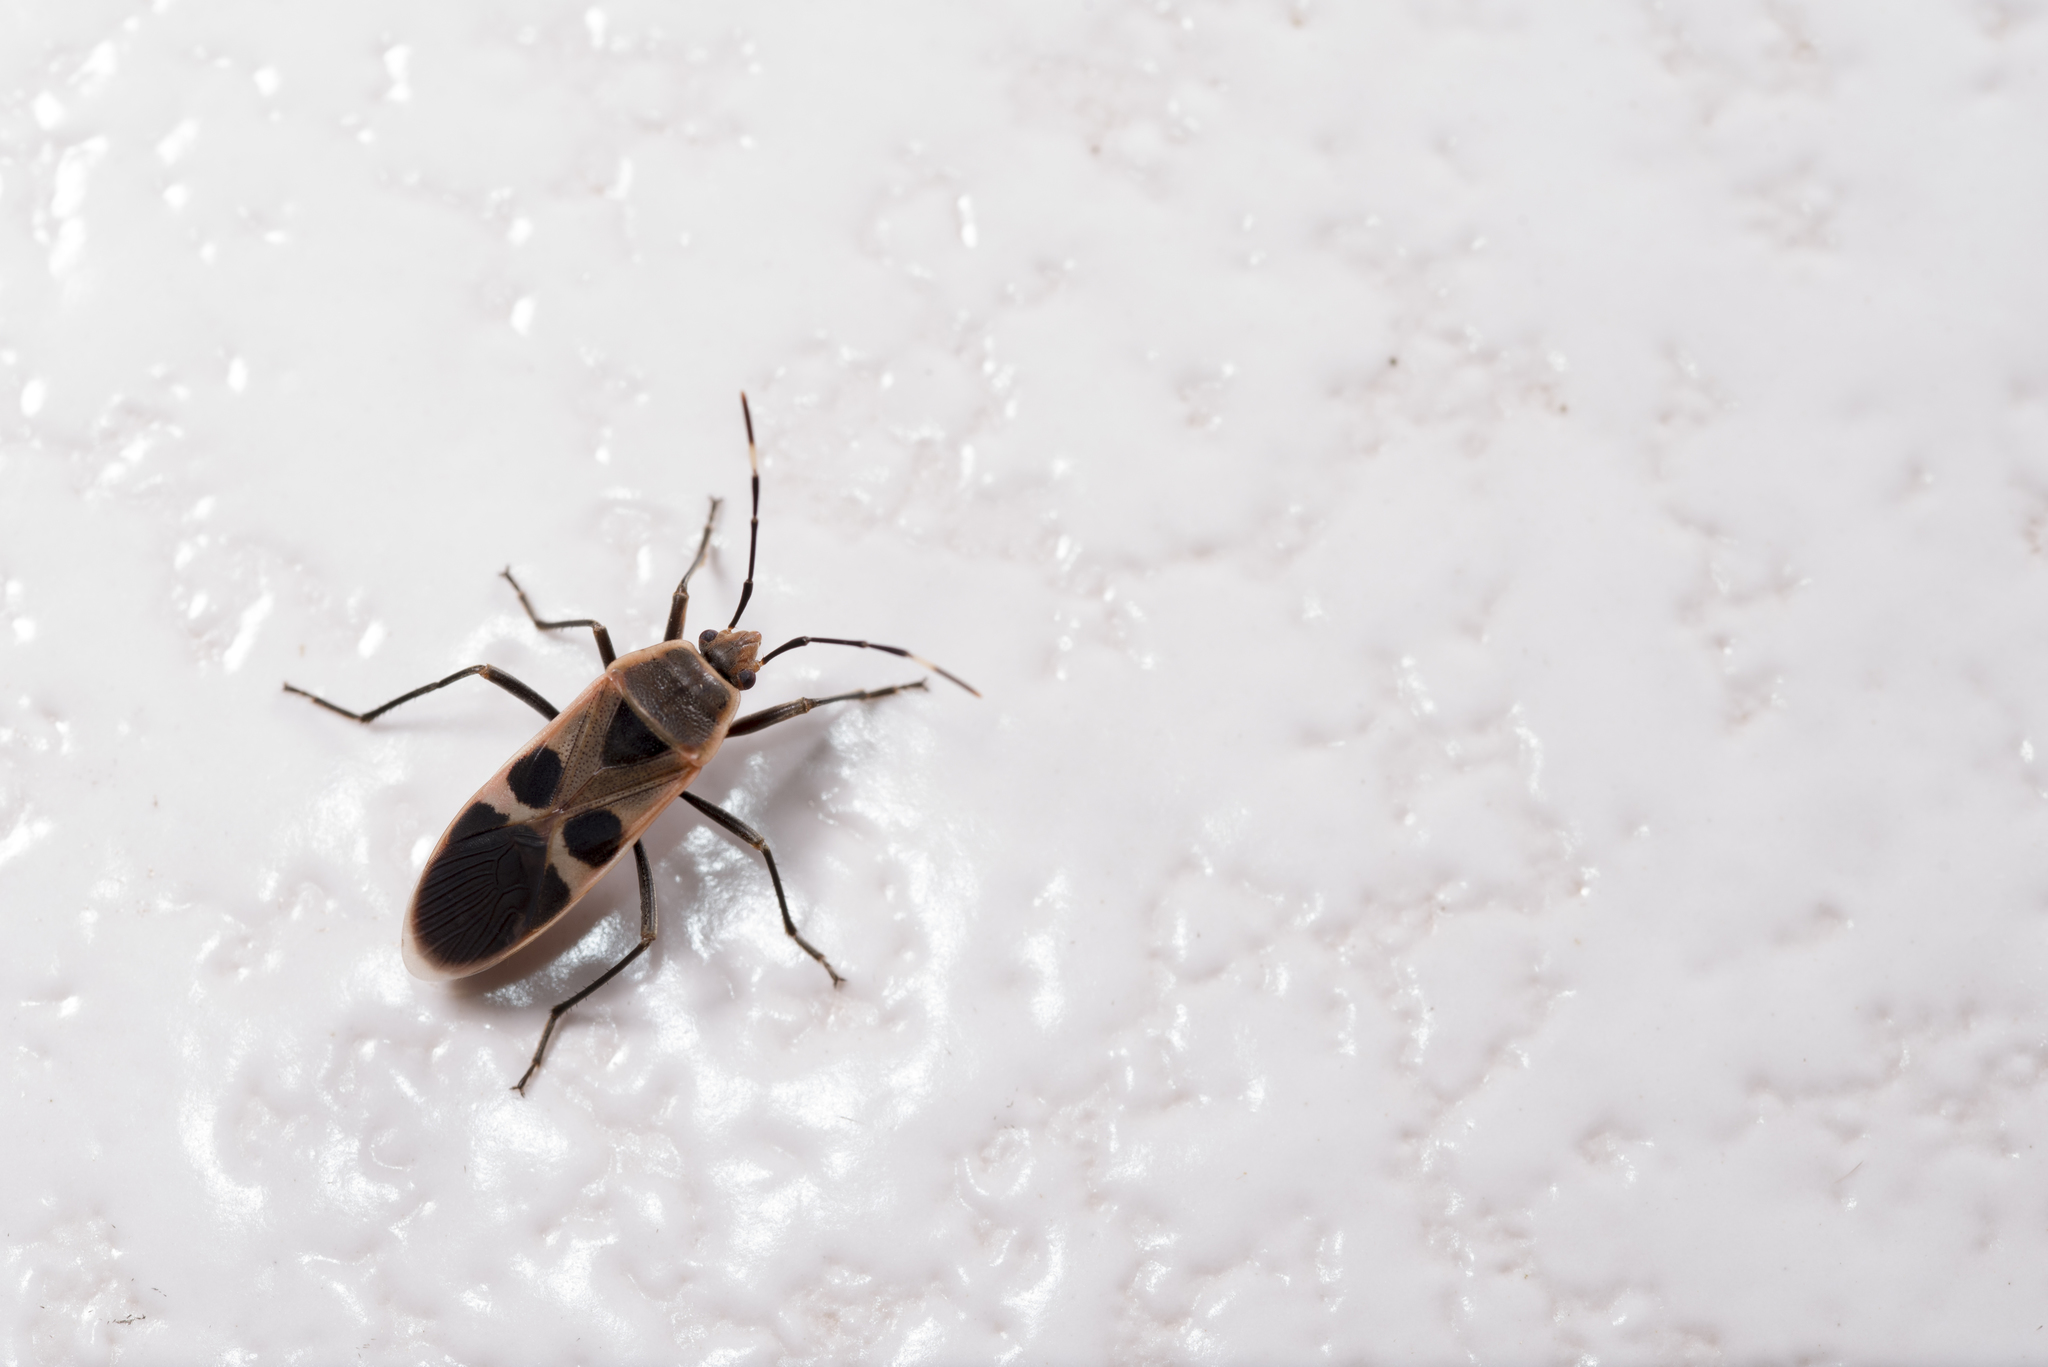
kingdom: Animalia
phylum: Arthropoda
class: Insecta
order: Hemiptera
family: Largidae
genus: Physopelta
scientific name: Physopelta gutta
